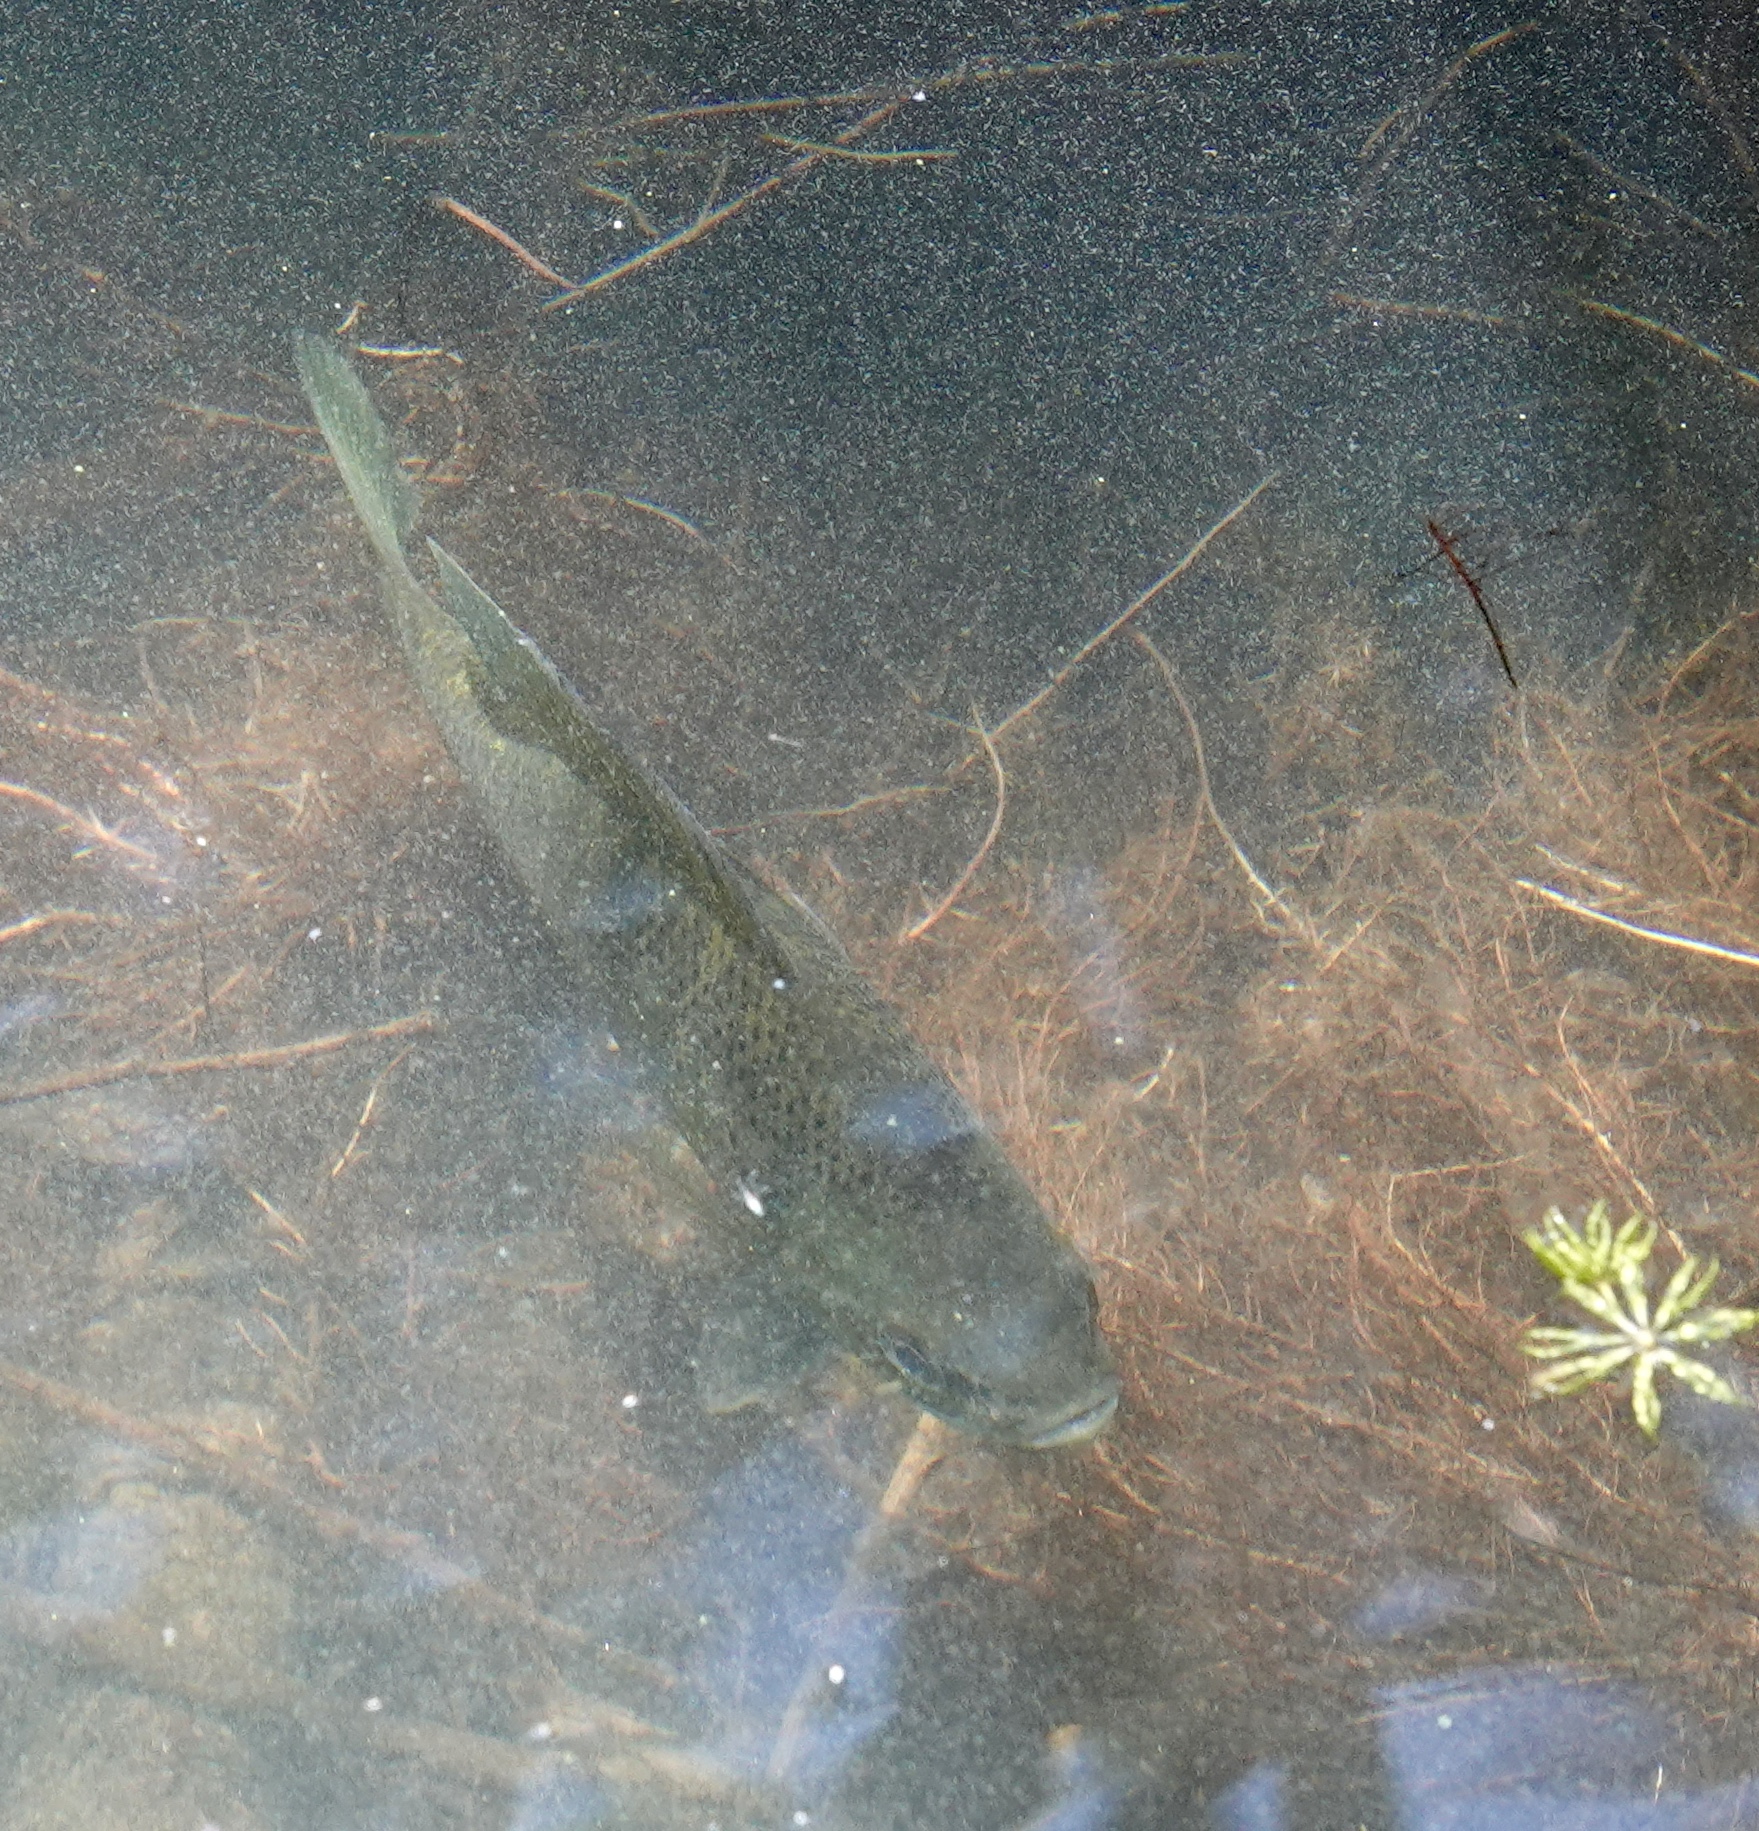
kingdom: Animalia
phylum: Chordata
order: Perciformes
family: Centrarchidae
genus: Lepomis
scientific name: Lepomis macrochirus
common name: Bluegill
